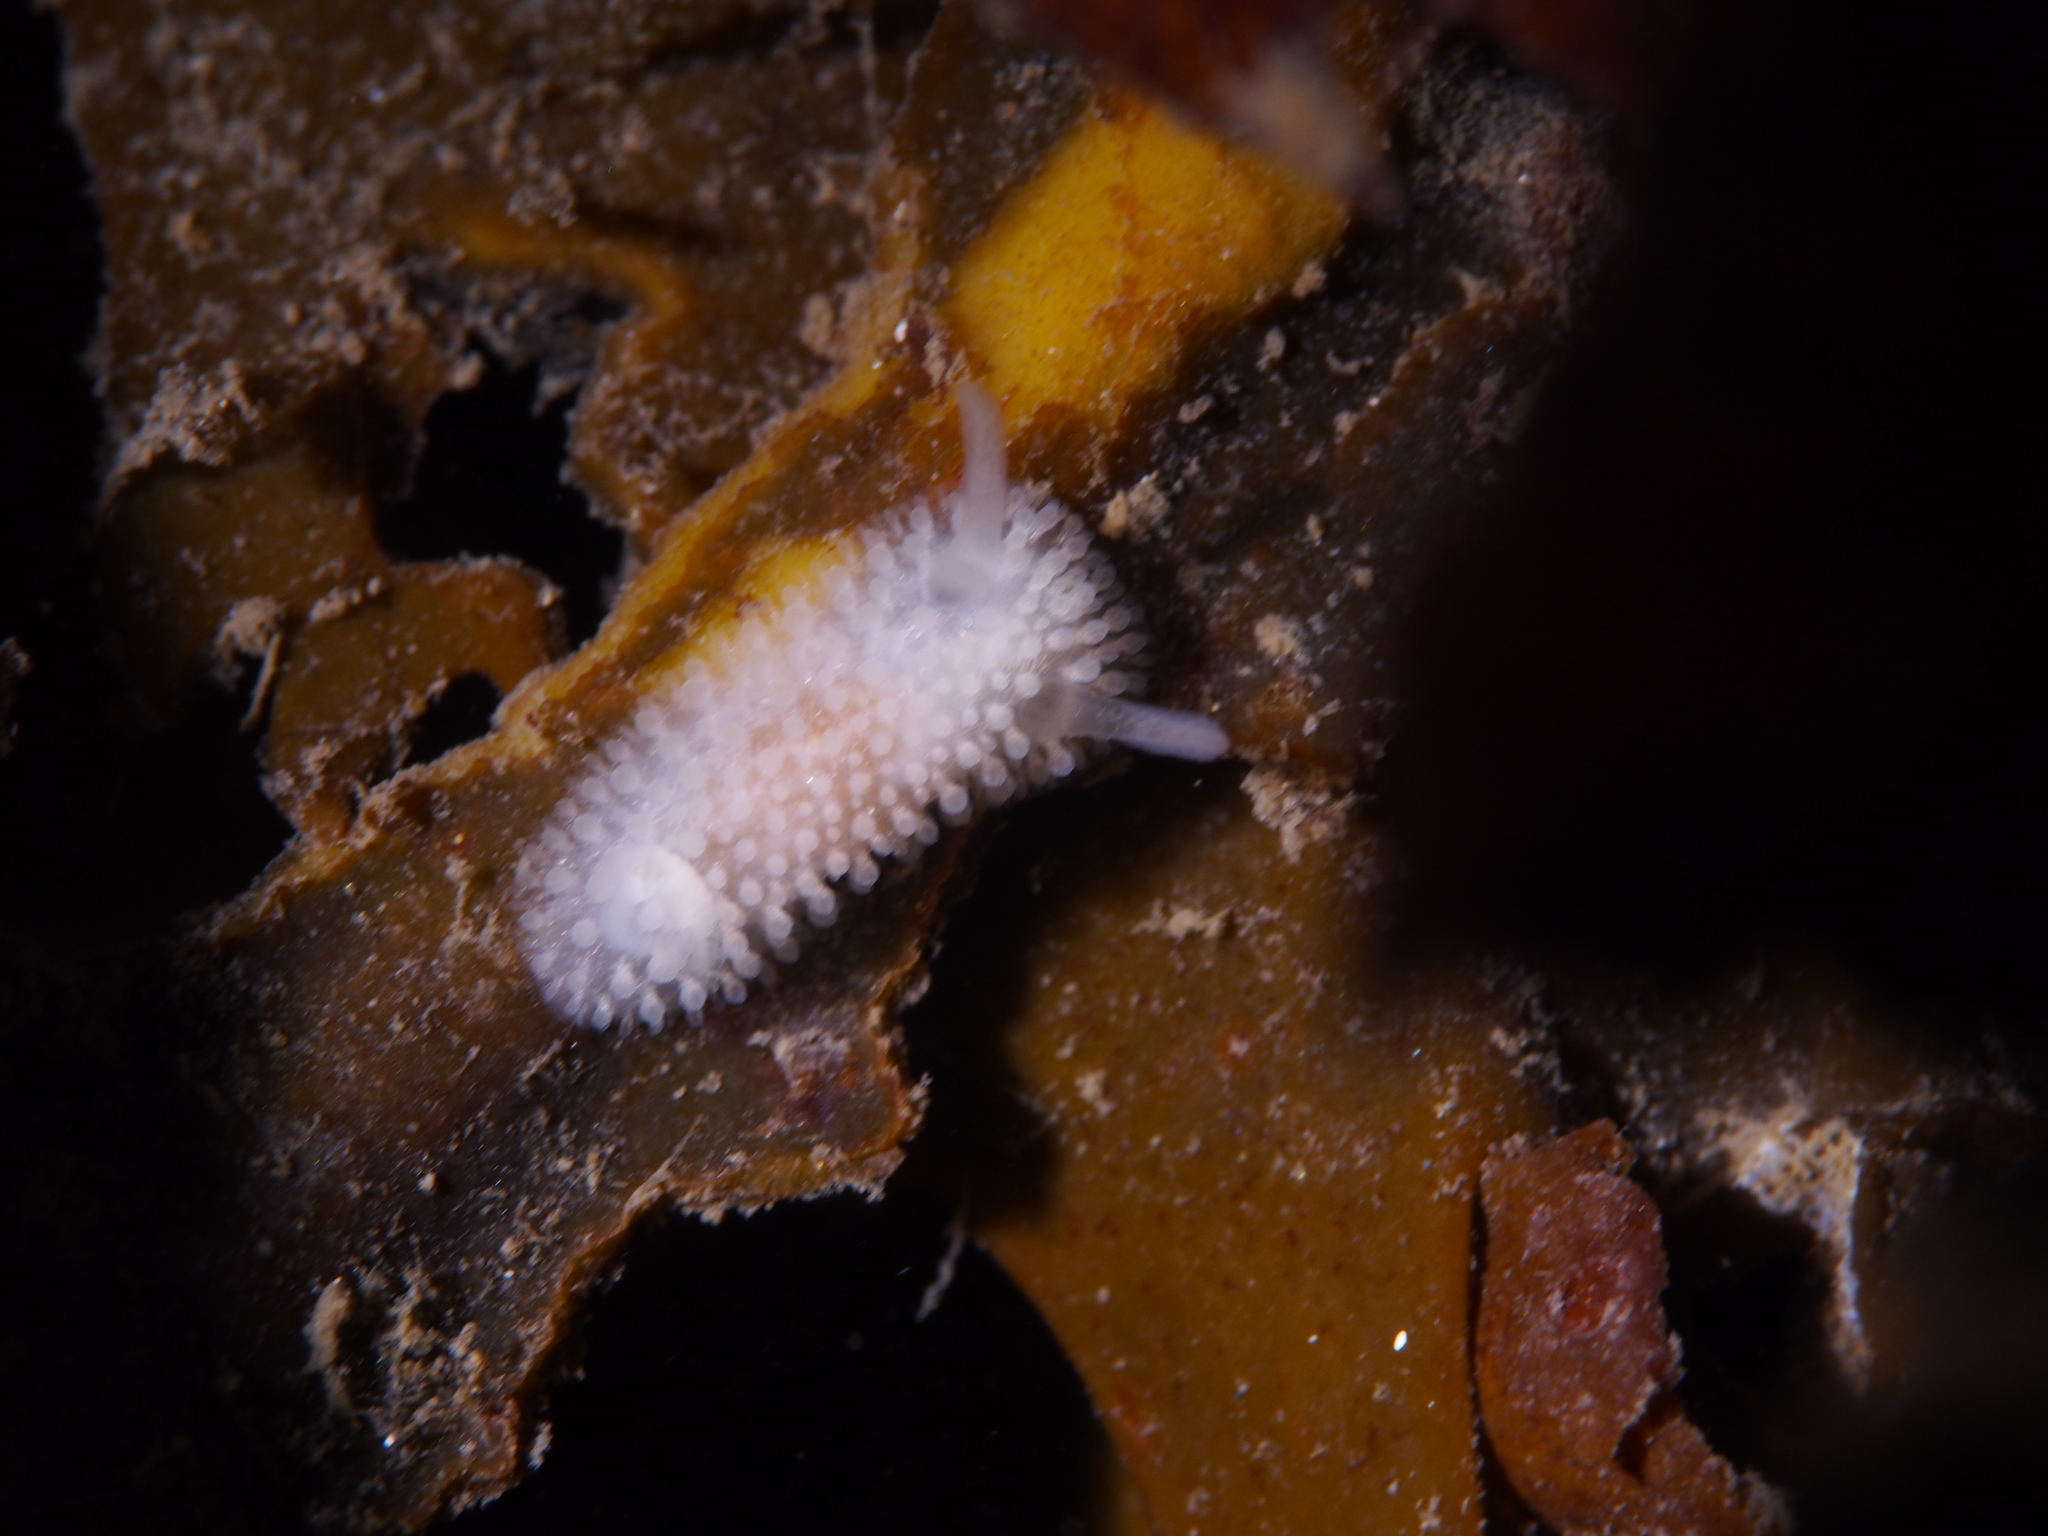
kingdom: Animalia
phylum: Mollusca
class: Gastropoda
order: Nudibranchia
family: Onchidorididae
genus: Onchidoris
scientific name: Onchidoris muricata
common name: Rough doris
